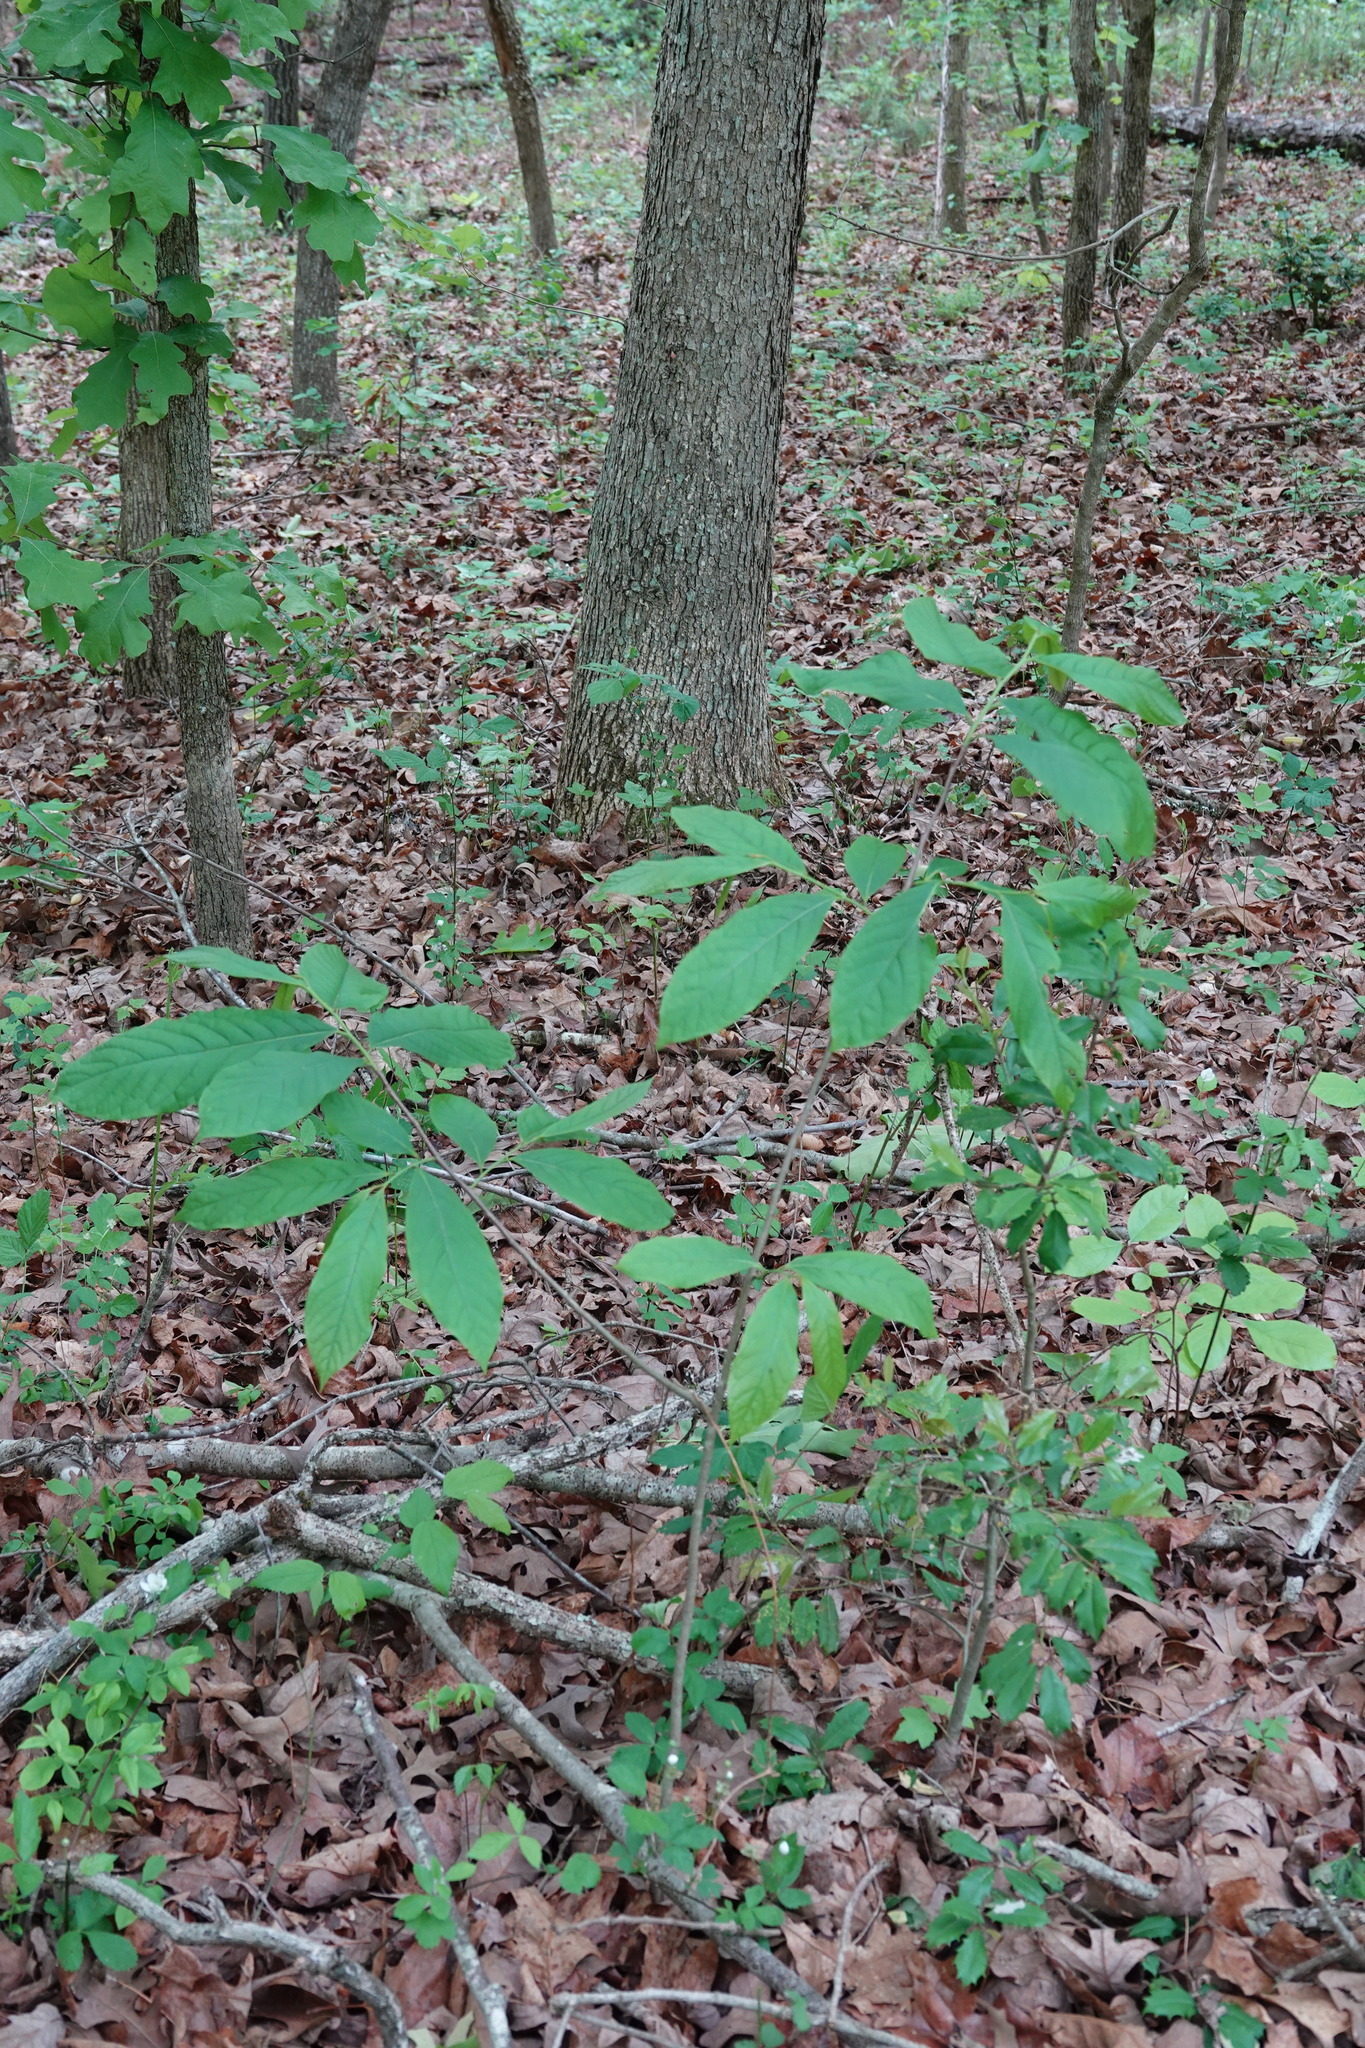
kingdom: Plantae
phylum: Tracheophyta
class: Magnoliopsida
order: Magnoliales
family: Annonaceae
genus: Asimina
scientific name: Asimina triloba
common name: Dog-banana
